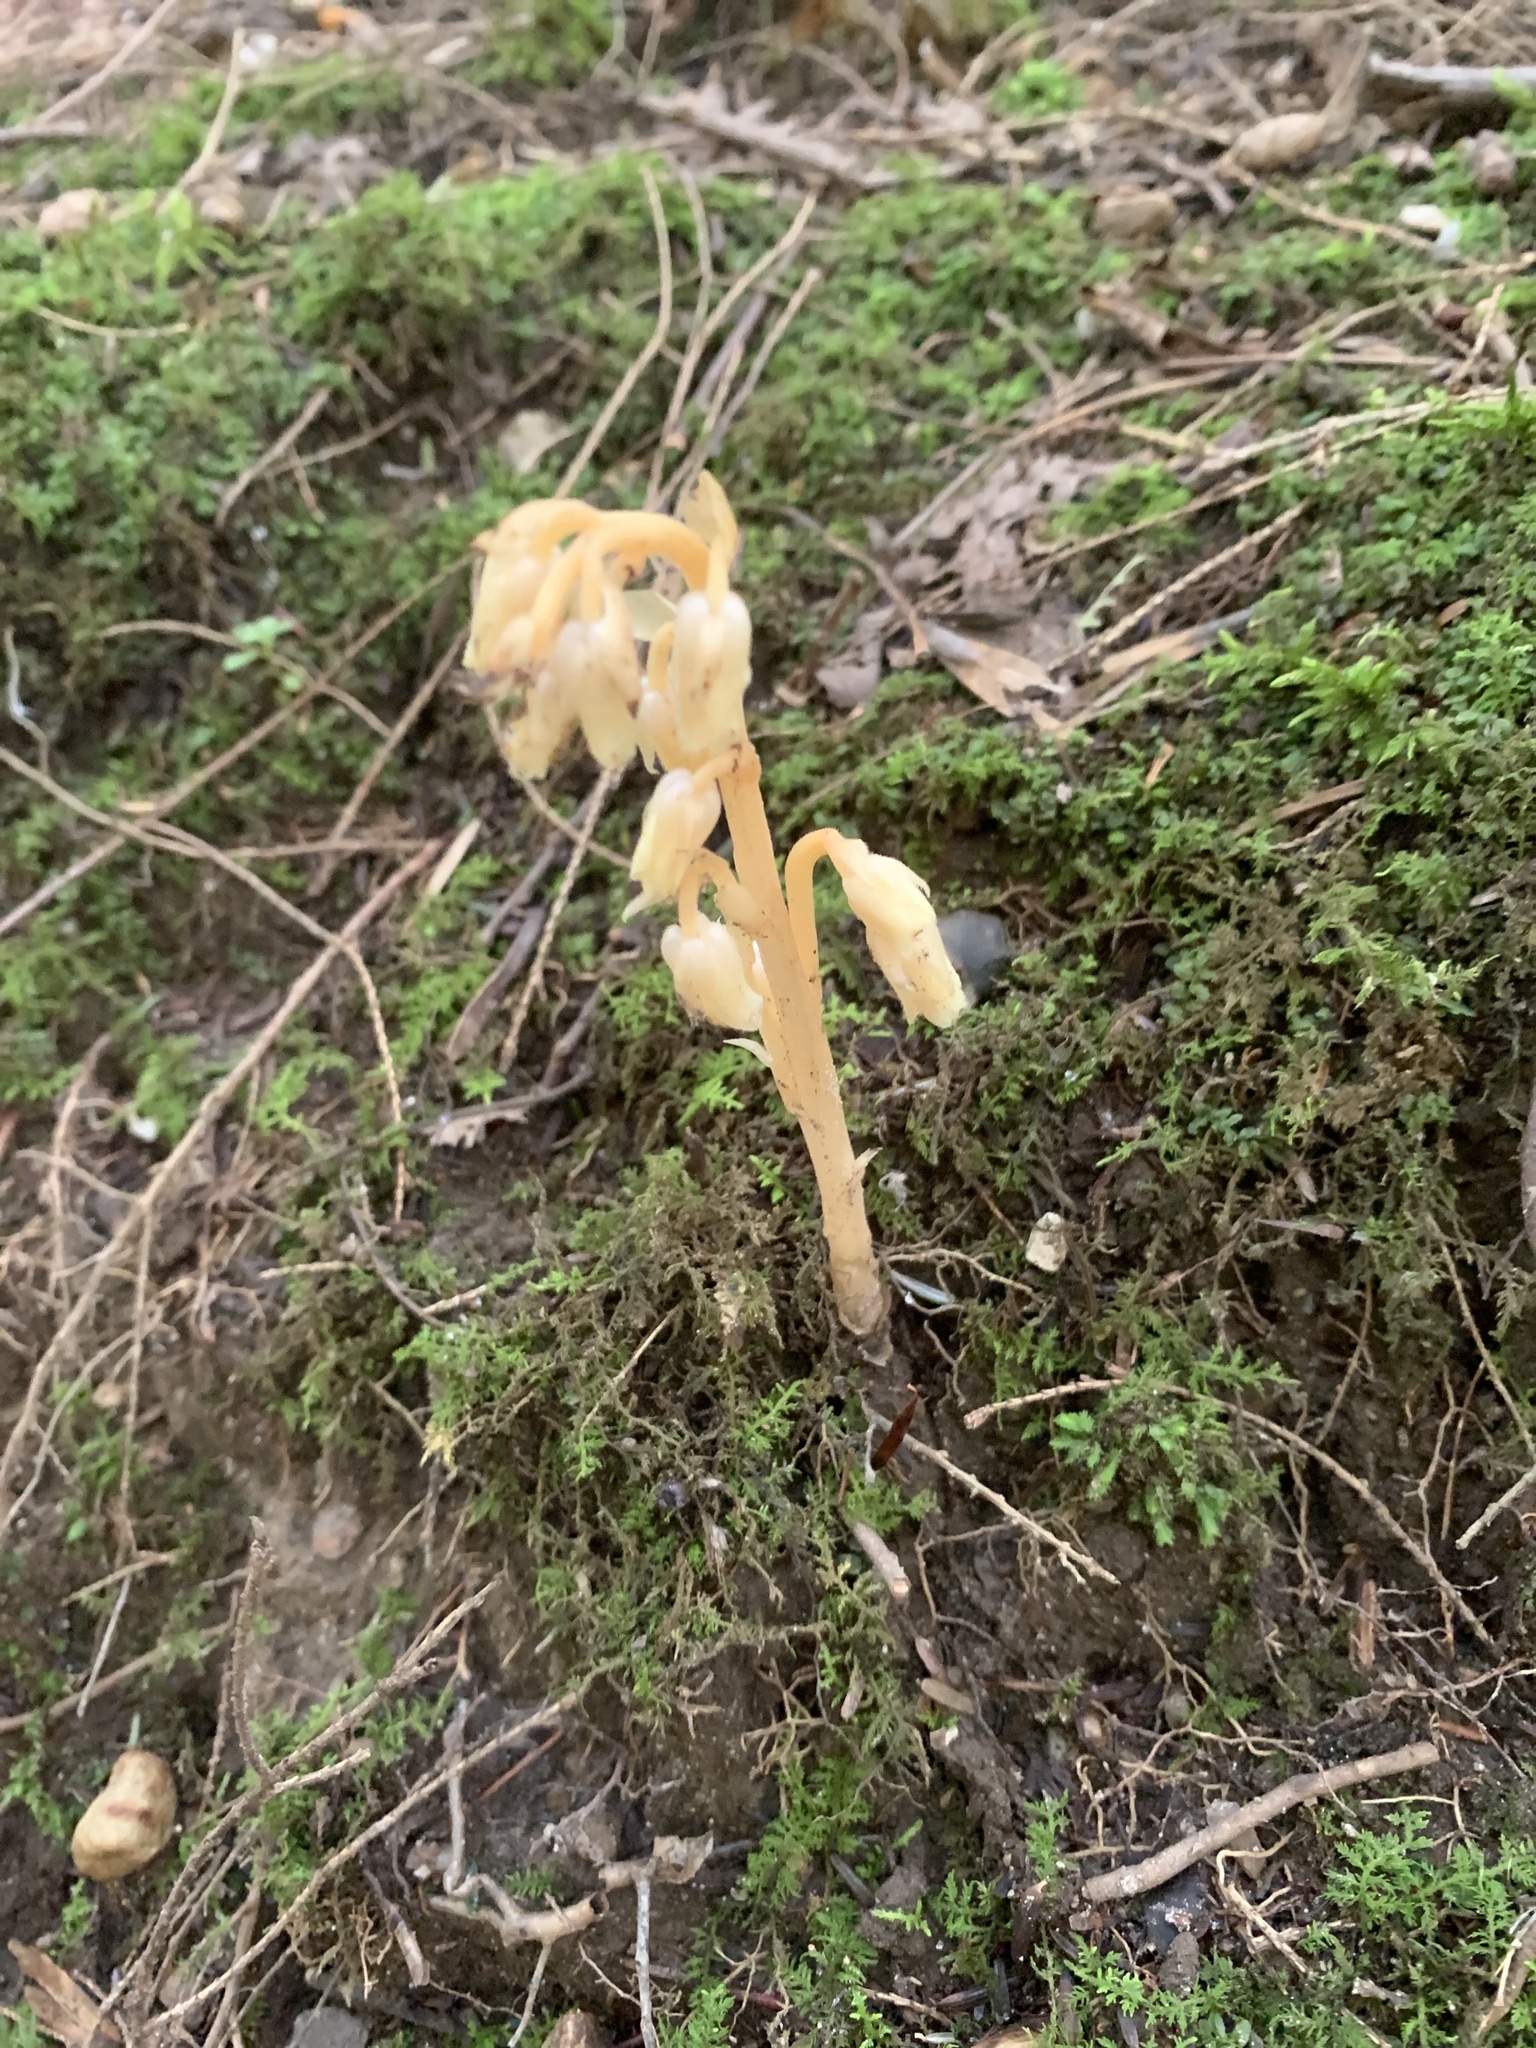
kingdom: Plantae
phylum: Tracheophyta
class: Magnoliopsida
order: Ericales
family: Ericaceae
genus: Hypopitys
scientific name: Hypopitys monotropa
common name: Yellow bird's-nest
